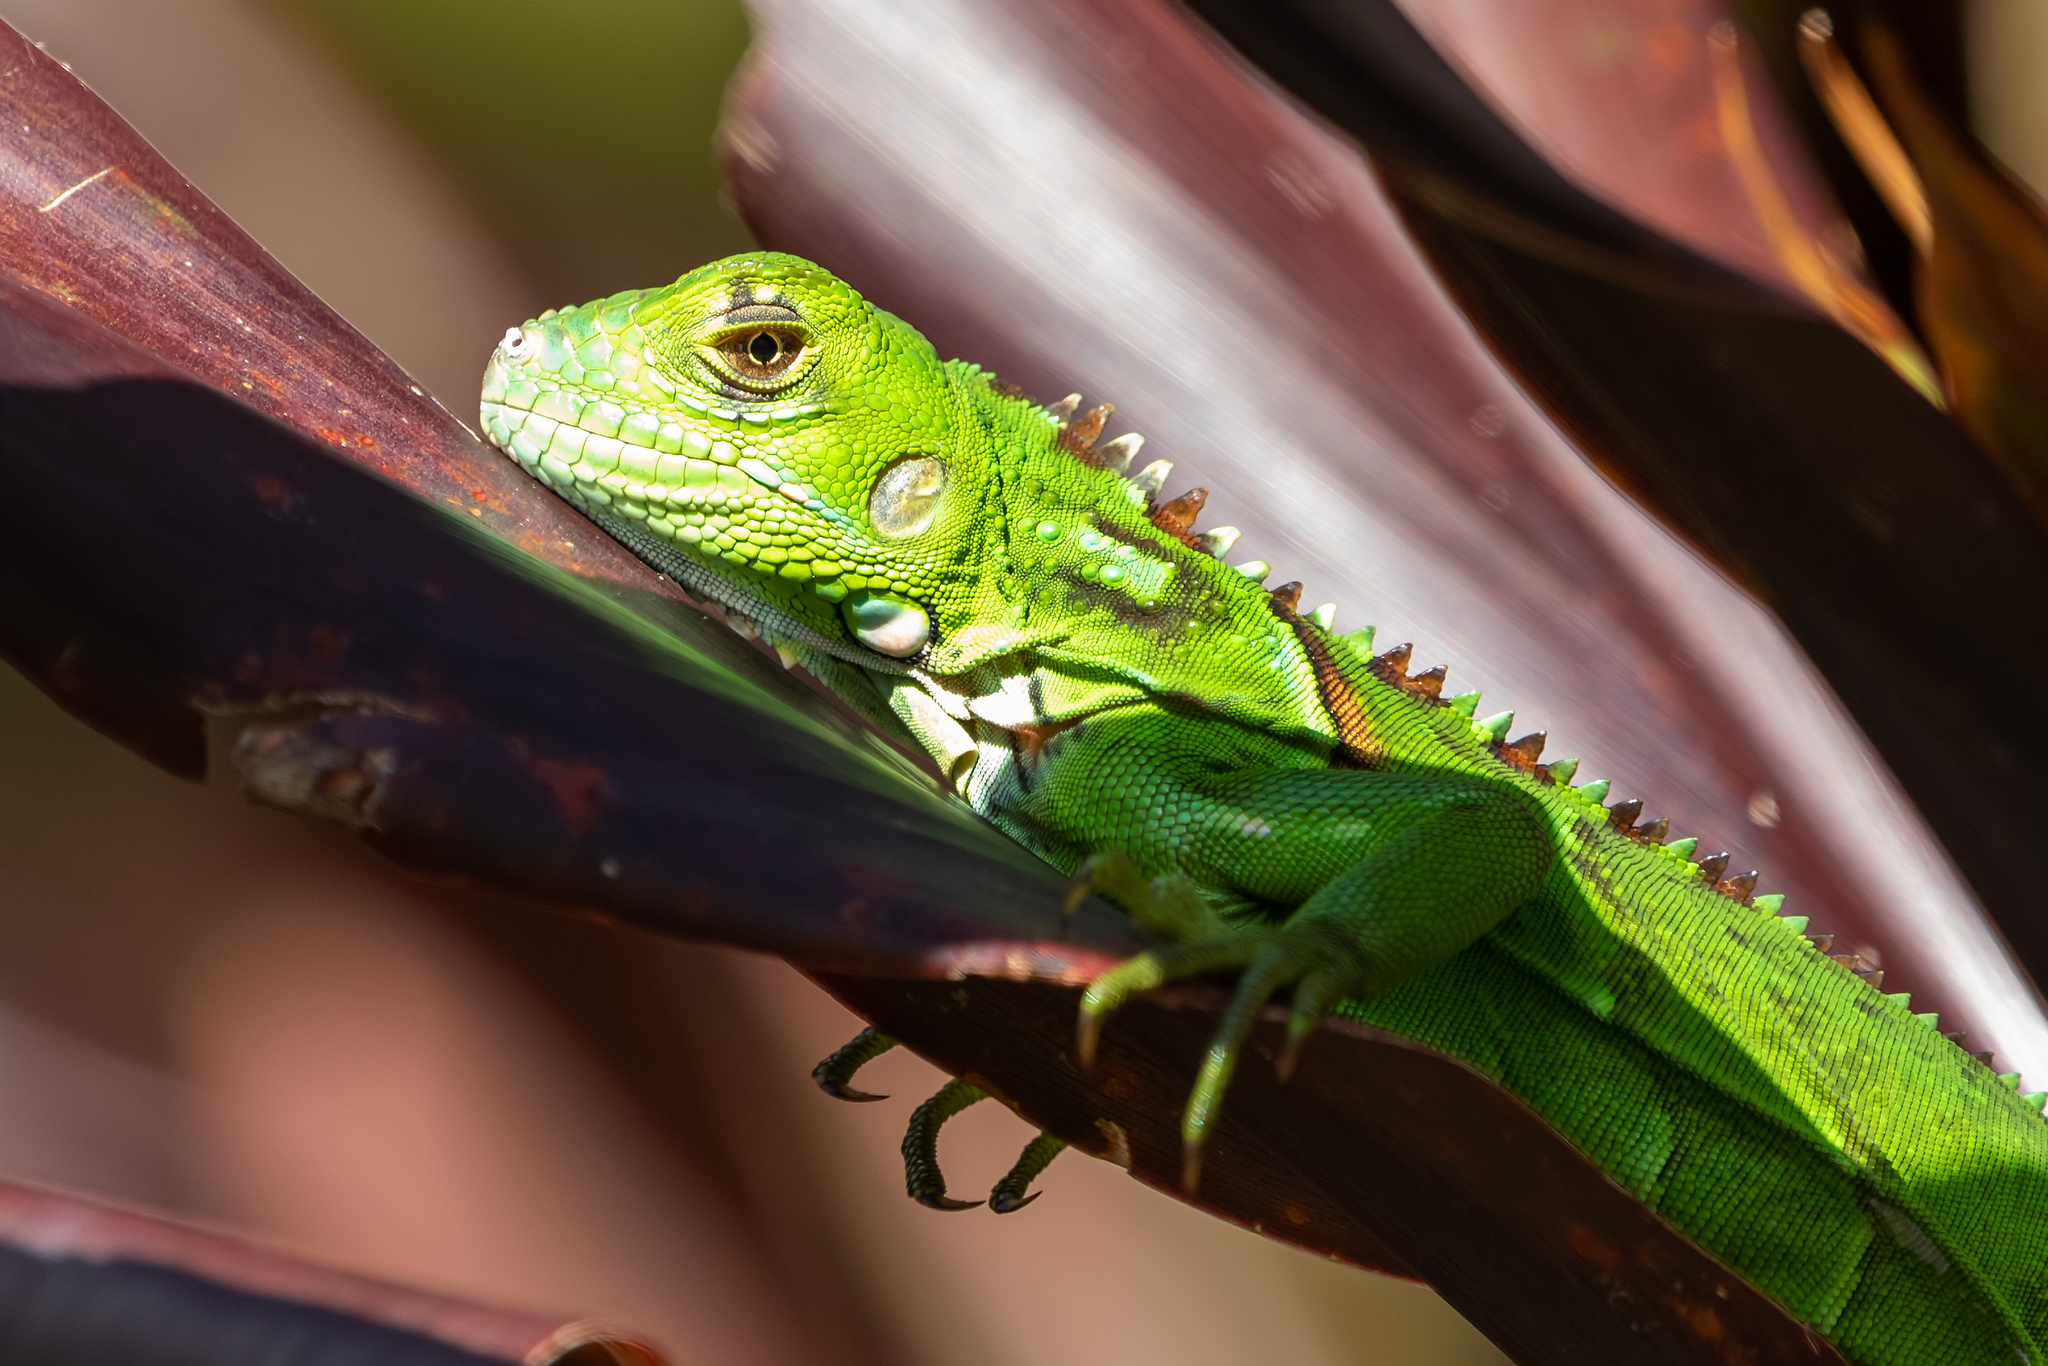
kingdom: Animalia
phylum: Chordata
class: Squamata
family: Iguanidae
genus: Iguana
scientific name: Iguana iguana
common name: Green iguana
